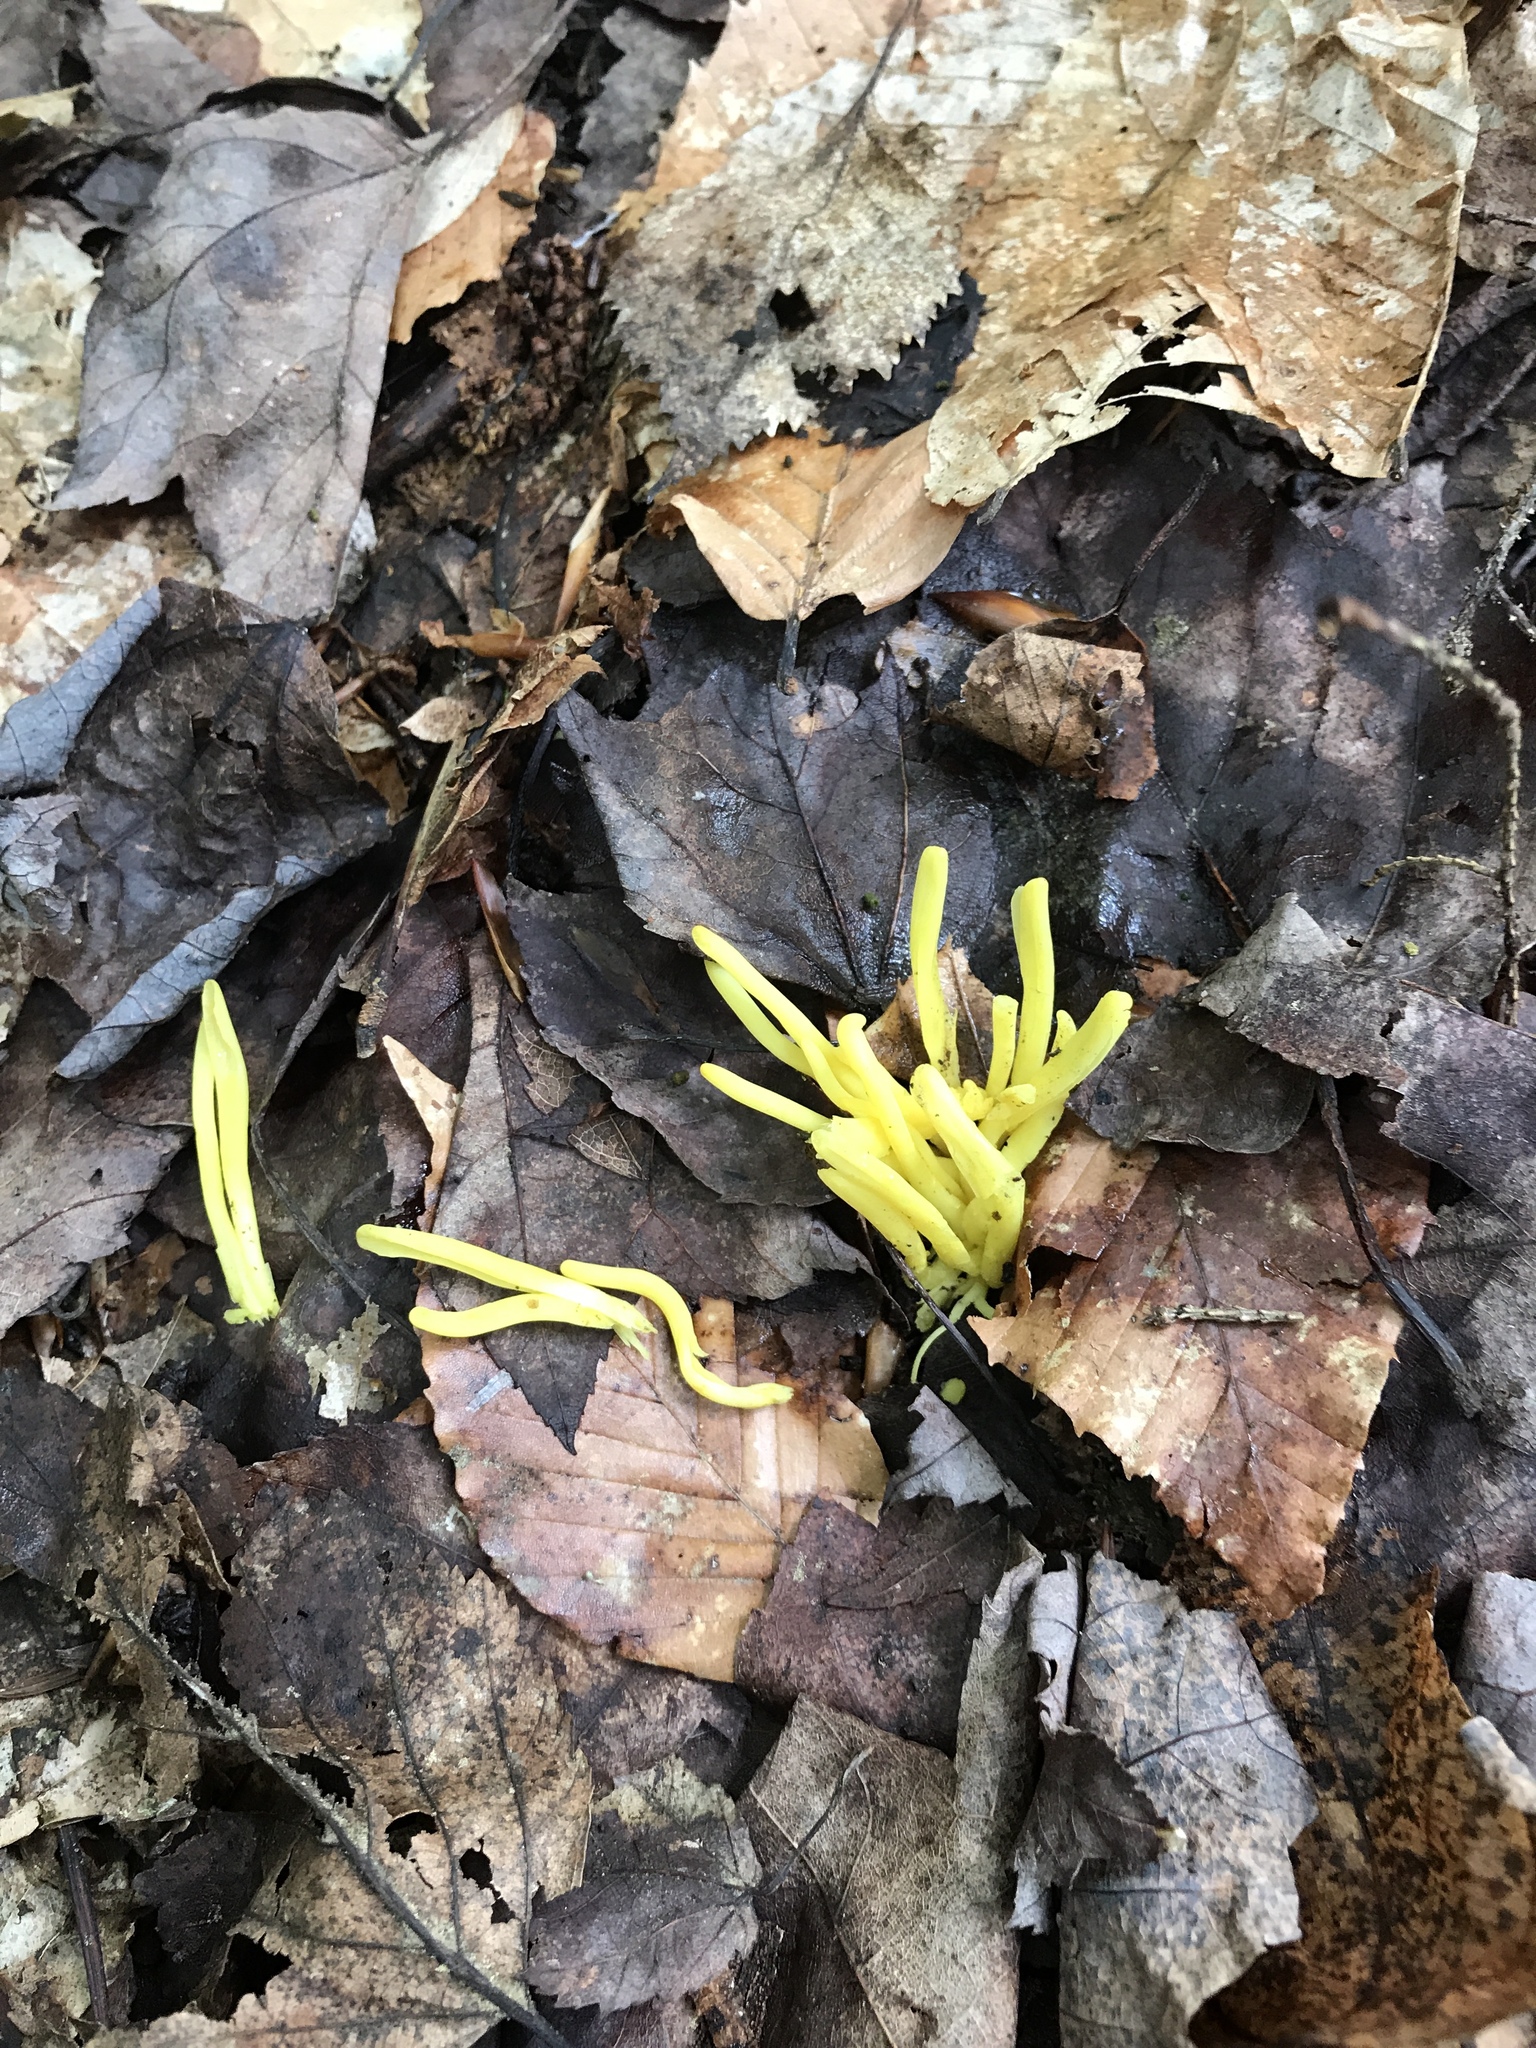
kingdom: Fungi
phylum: Basidiomycota
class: Agaricomycetes
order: Agaricales
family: Clavariaceae
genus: Clavulinopsis
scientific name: Clavulinopsis fusiformis
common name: Golden spindles
